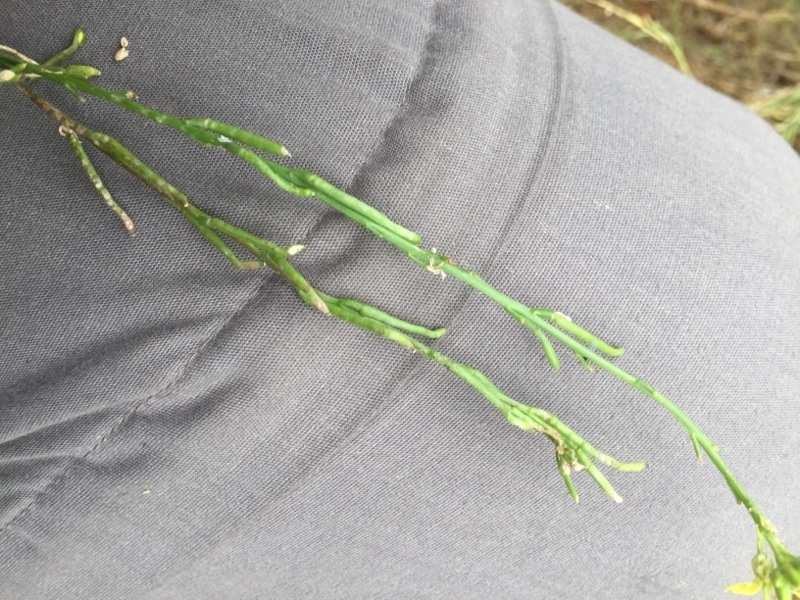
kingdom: Plantae
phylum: Tracheophyta
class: Magnoliopsida
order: Brassicales
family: Brassicaceae
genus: Hirschfeldia
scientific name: Hirschfeldia incana
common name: Hoary mustard
